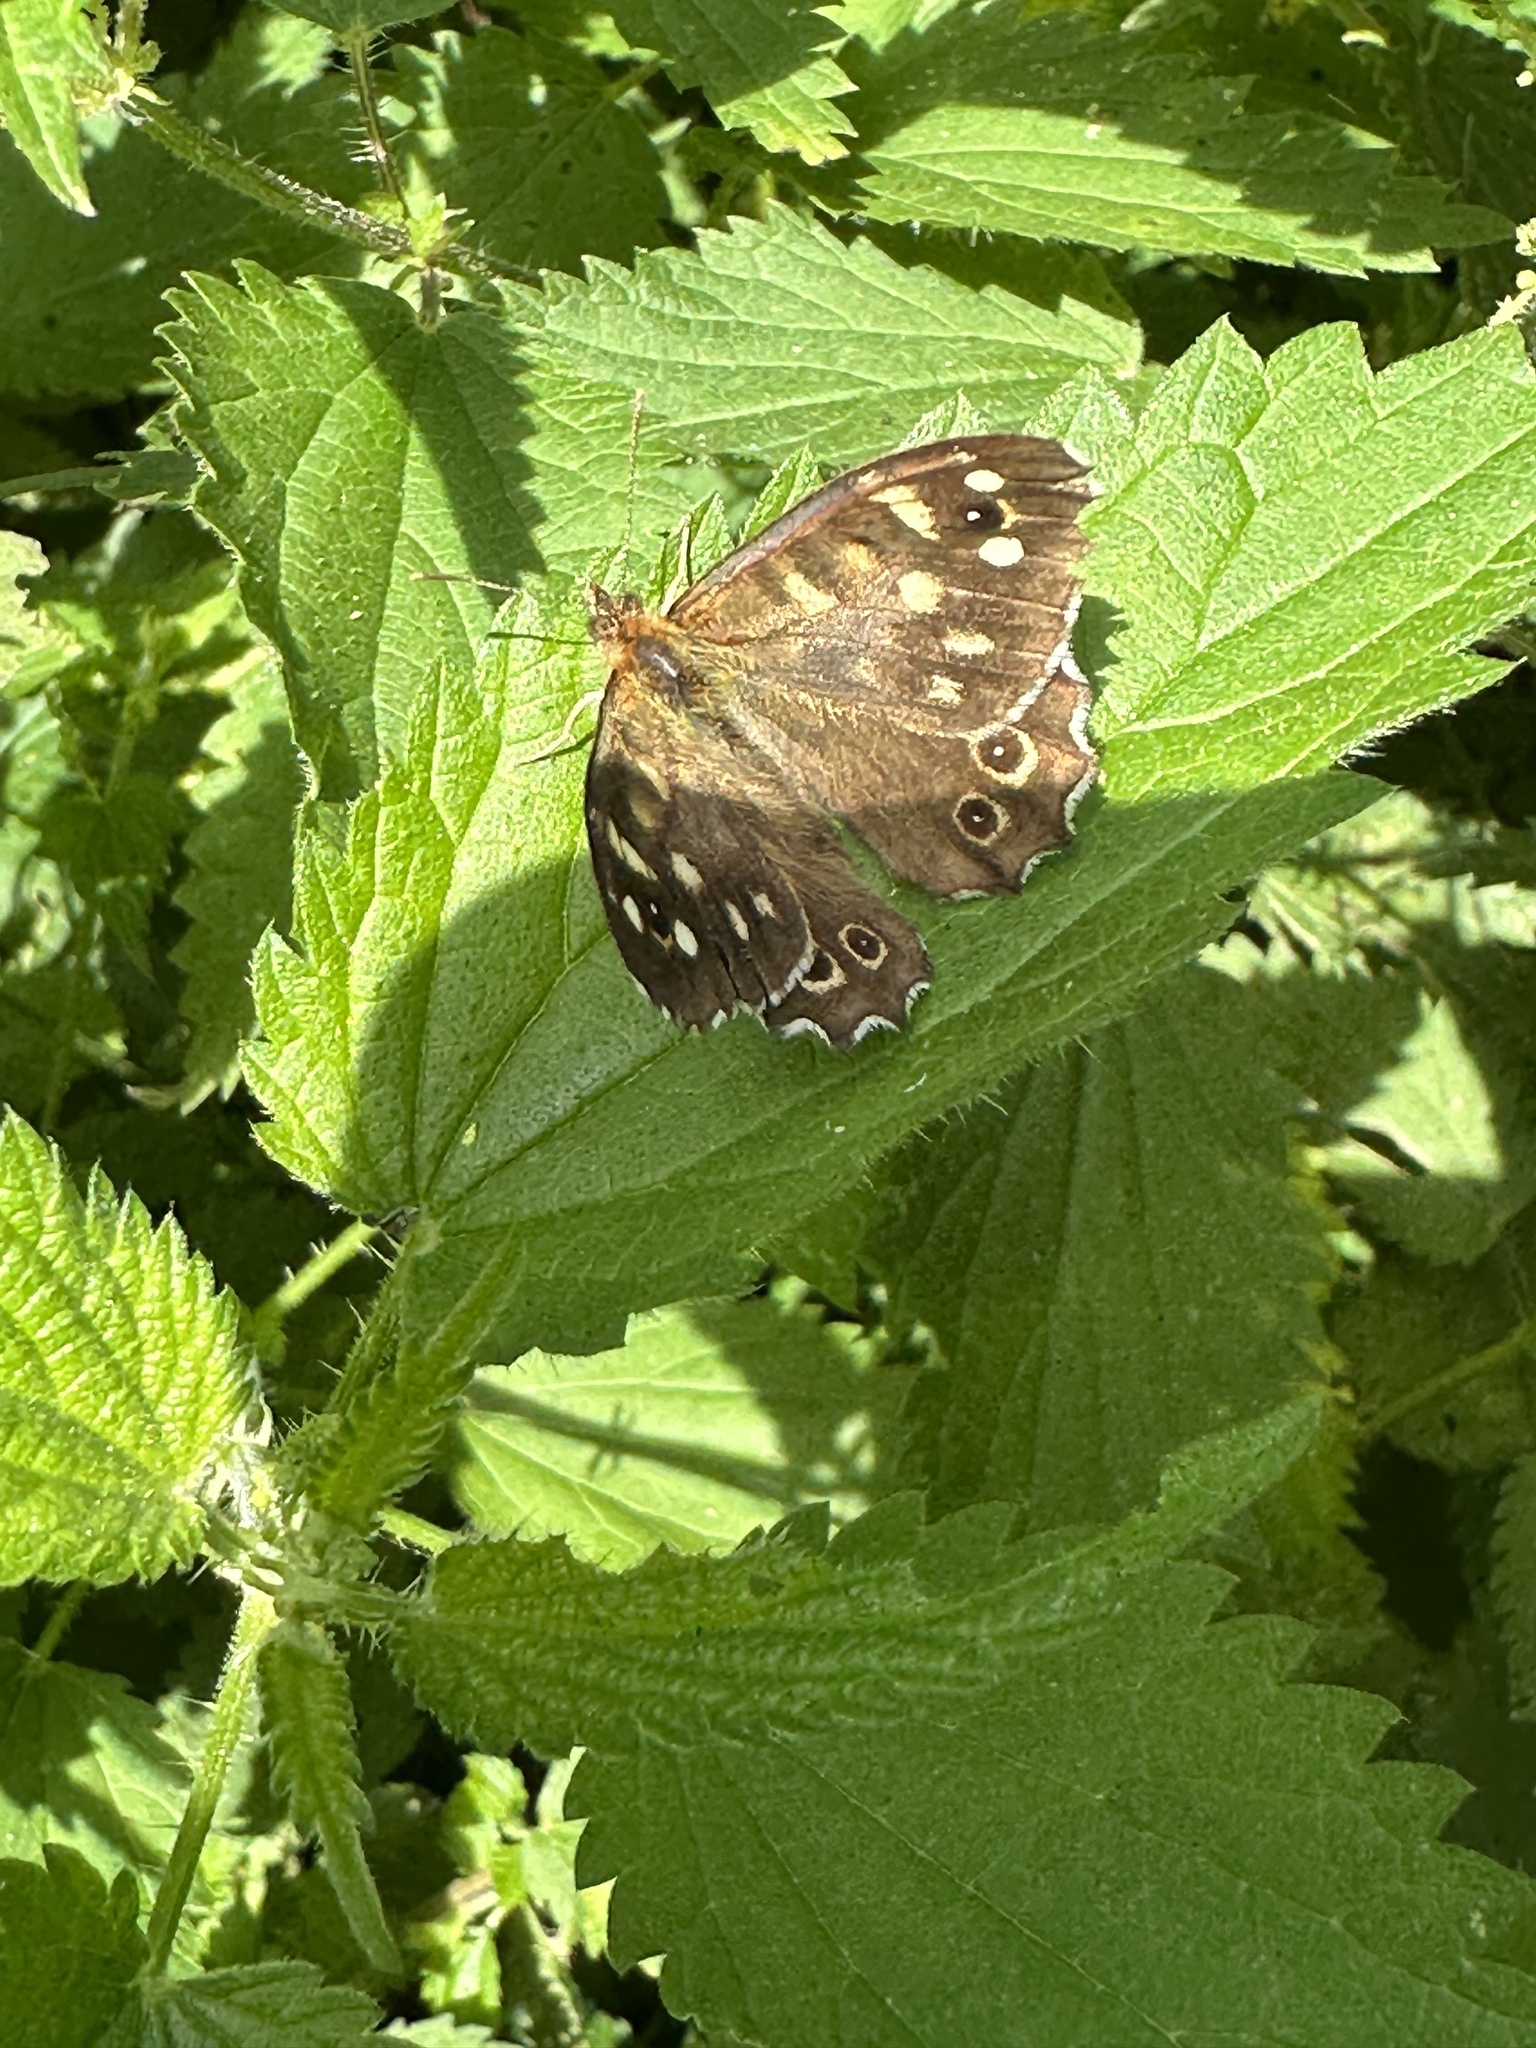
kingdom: Animalia
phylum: Arthropoda
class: Insecta
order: Lepidoptera
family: Nymphalidae
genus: Pararge
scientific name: Pararge aegeria
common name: Speckled wood
